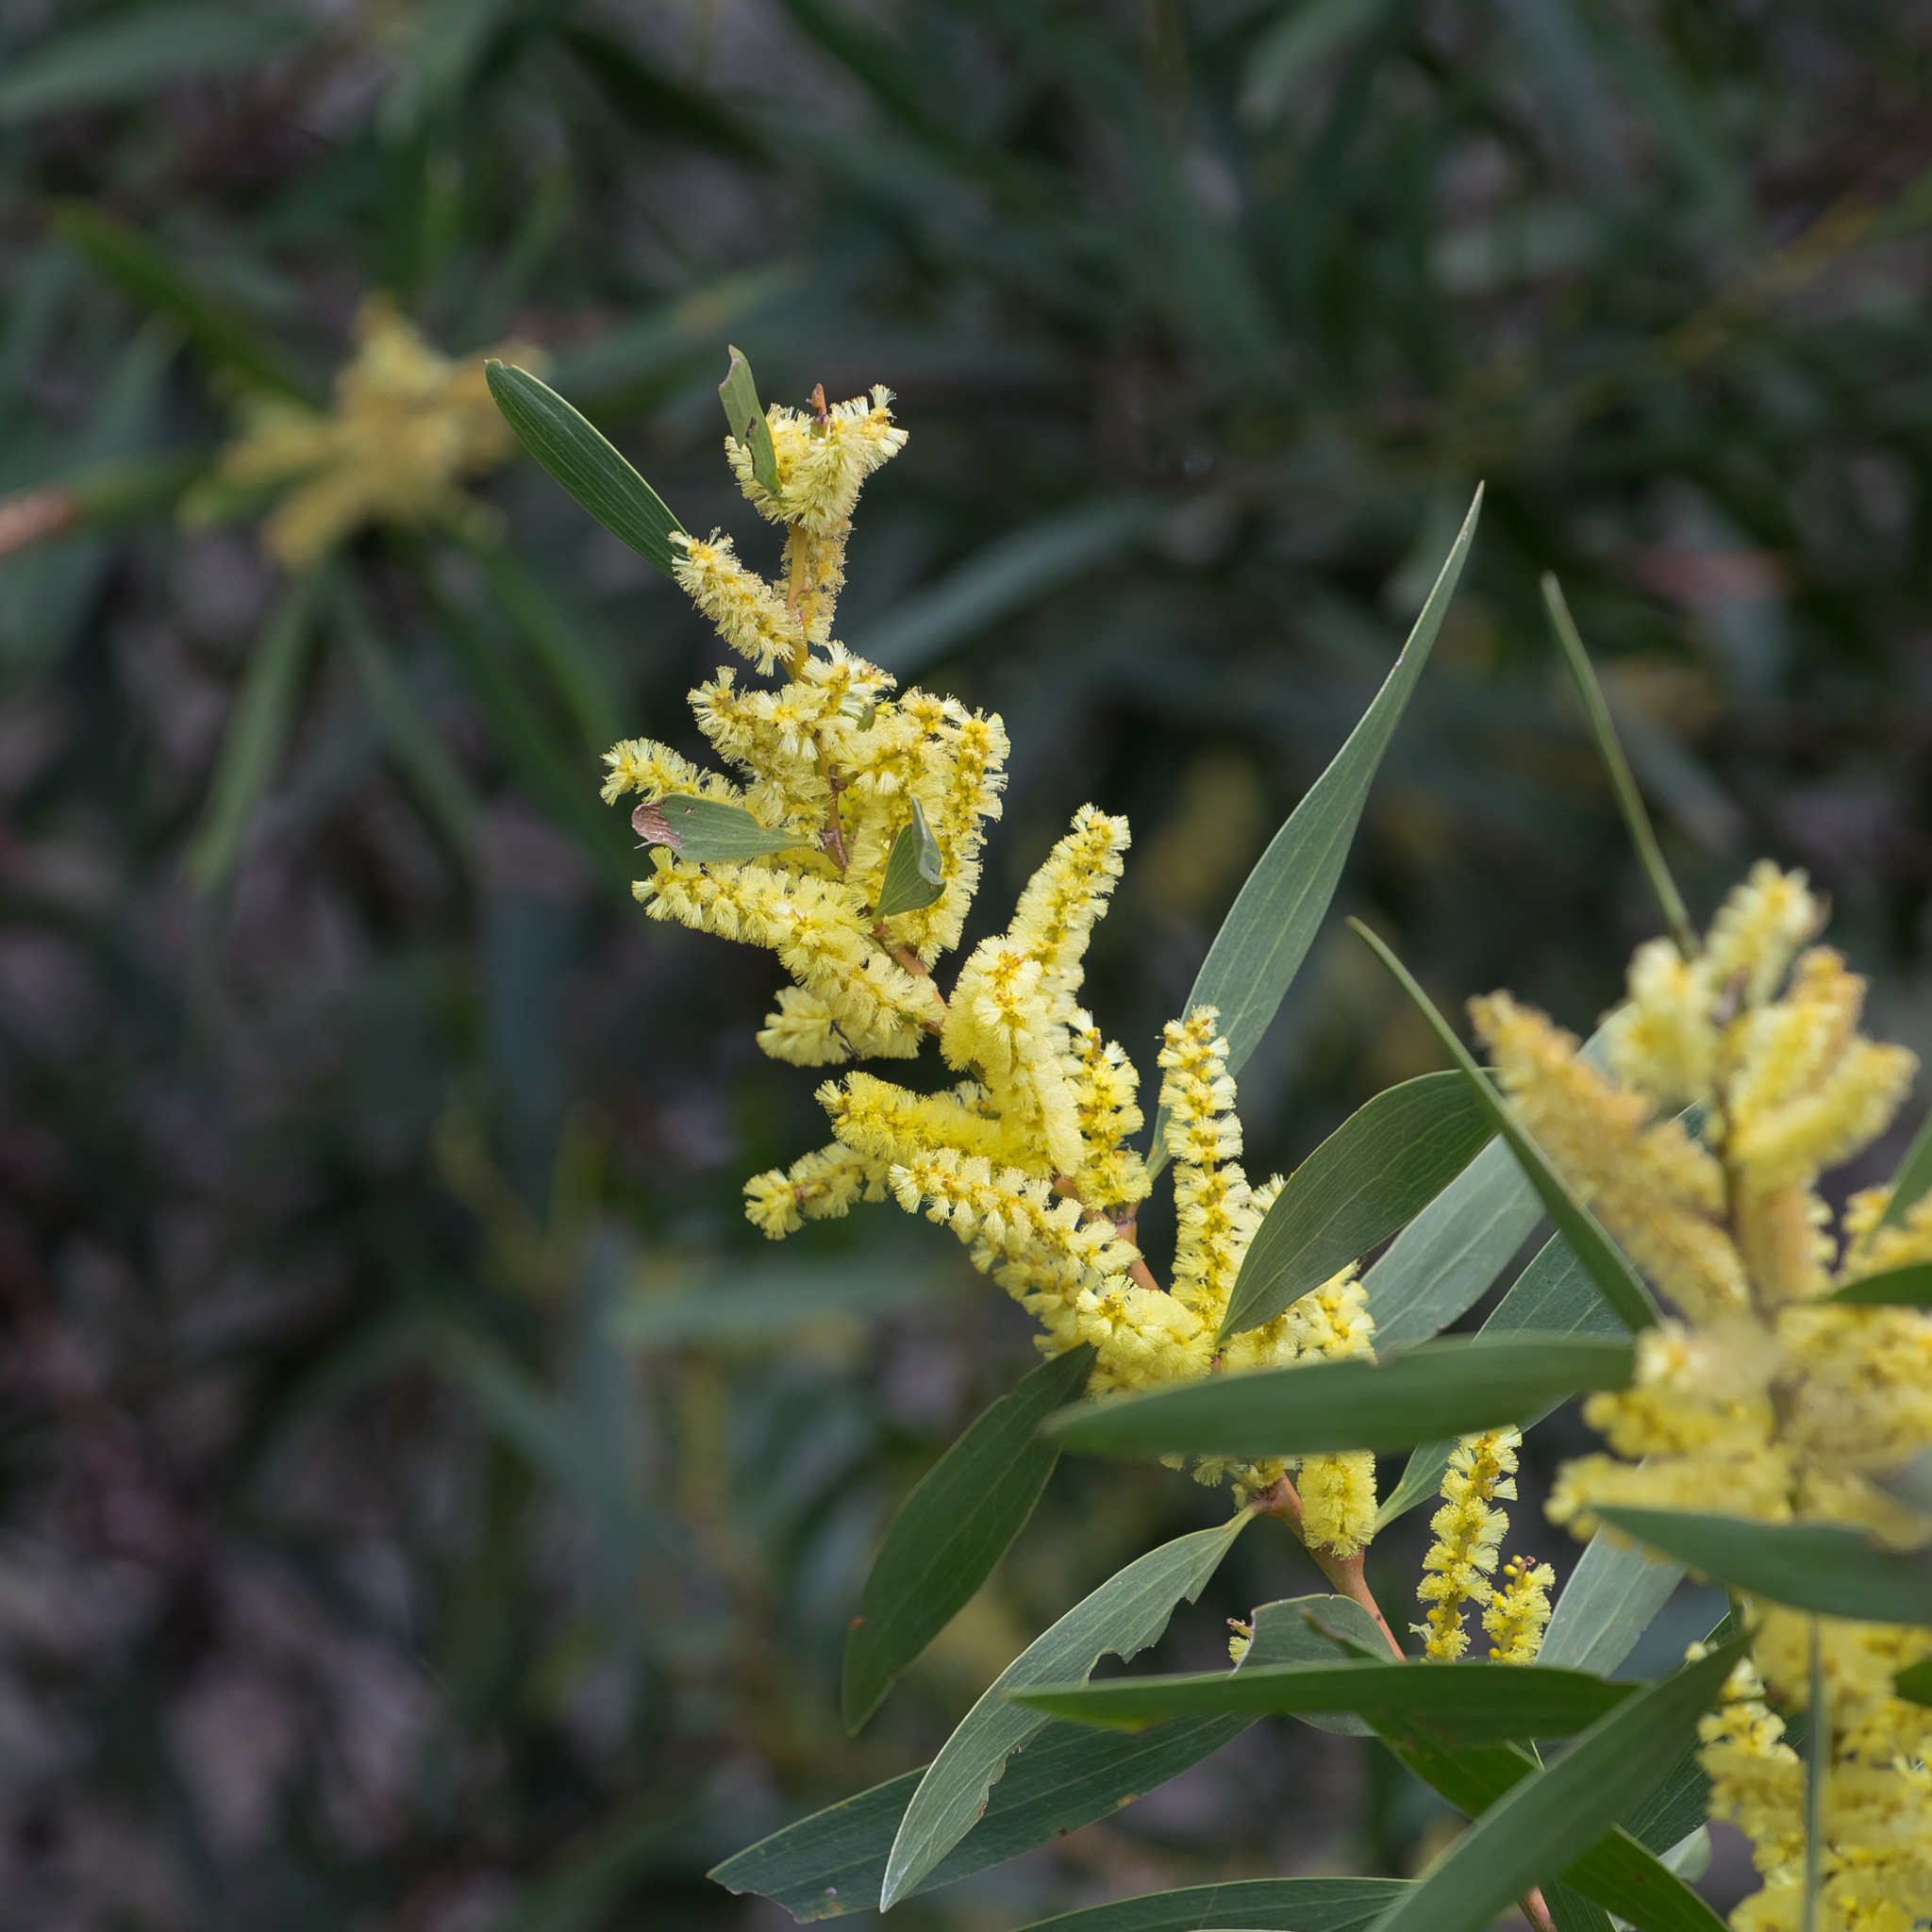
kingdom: Plantae
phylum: Tracheophyta
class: Magnoliopsida
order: Fabales
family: Fabaceae
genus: Acacia
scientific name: Acacia longifolia
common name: Sydney golden wattle
